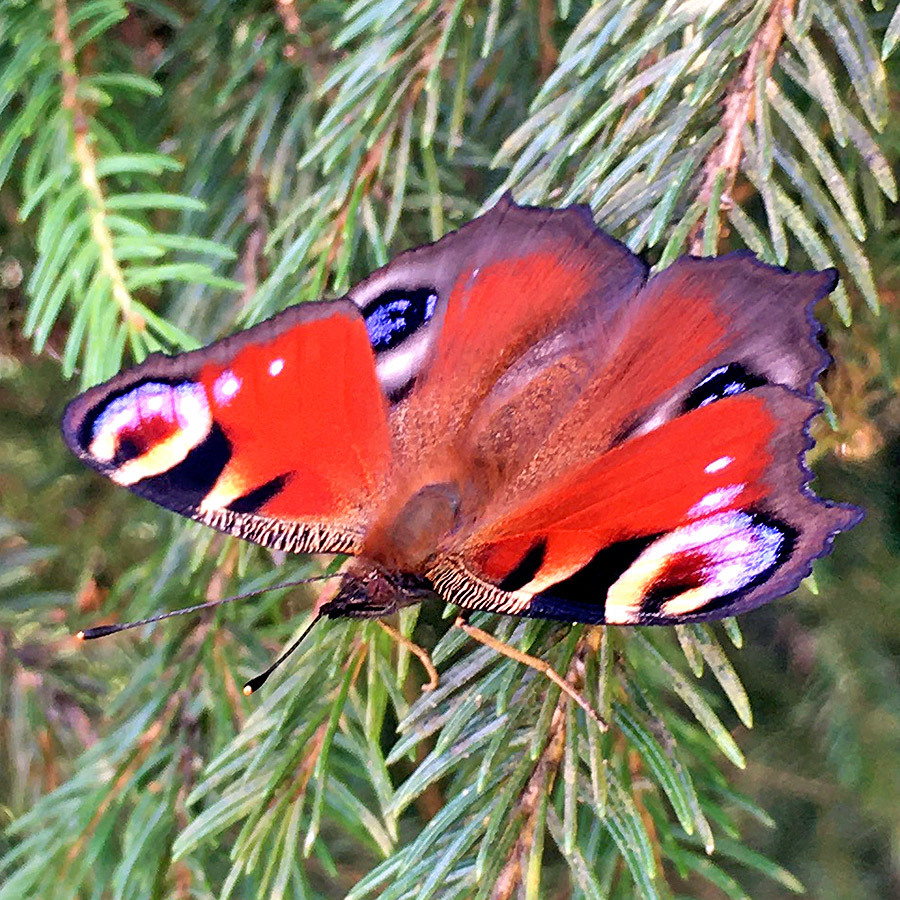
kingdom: Animalia
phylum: Arthropoda
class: Insecta
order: Lepidoptera
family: Nymphalidae
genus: Aglais
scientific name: Aglais io
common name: Peacock
